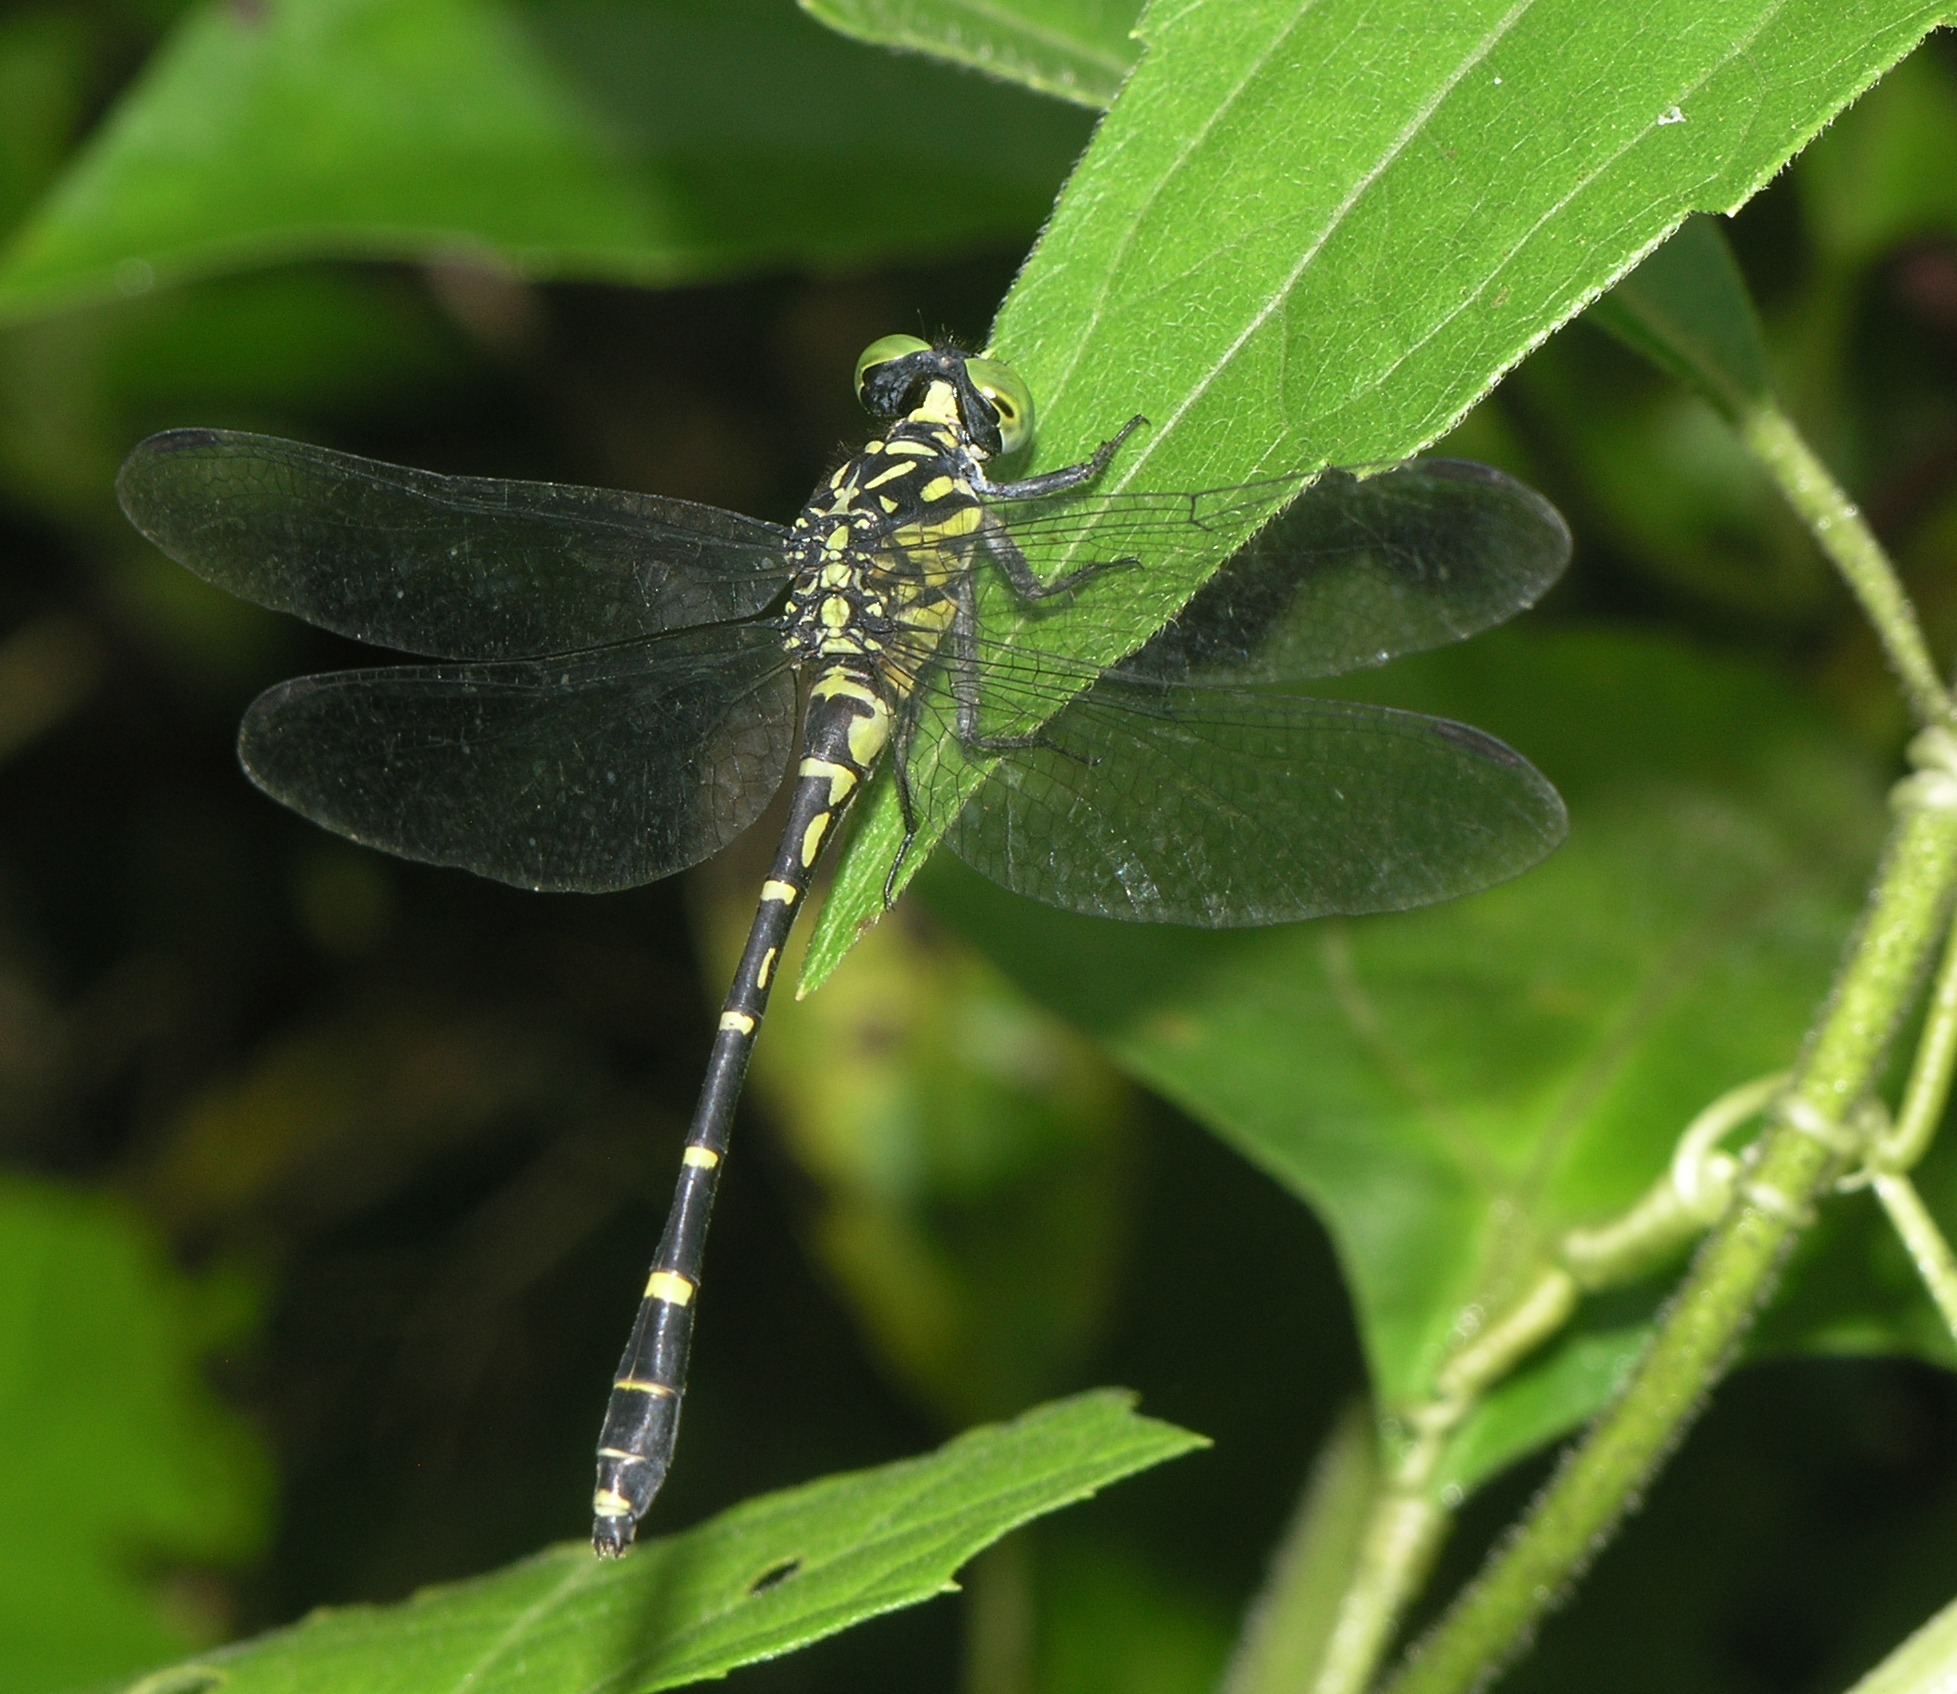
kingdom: Animalia
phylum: Arthropoda
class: Insecta
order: Odonata
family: Gomphidae
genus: Burmagomphus
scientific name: Burmagomphus asahinai
